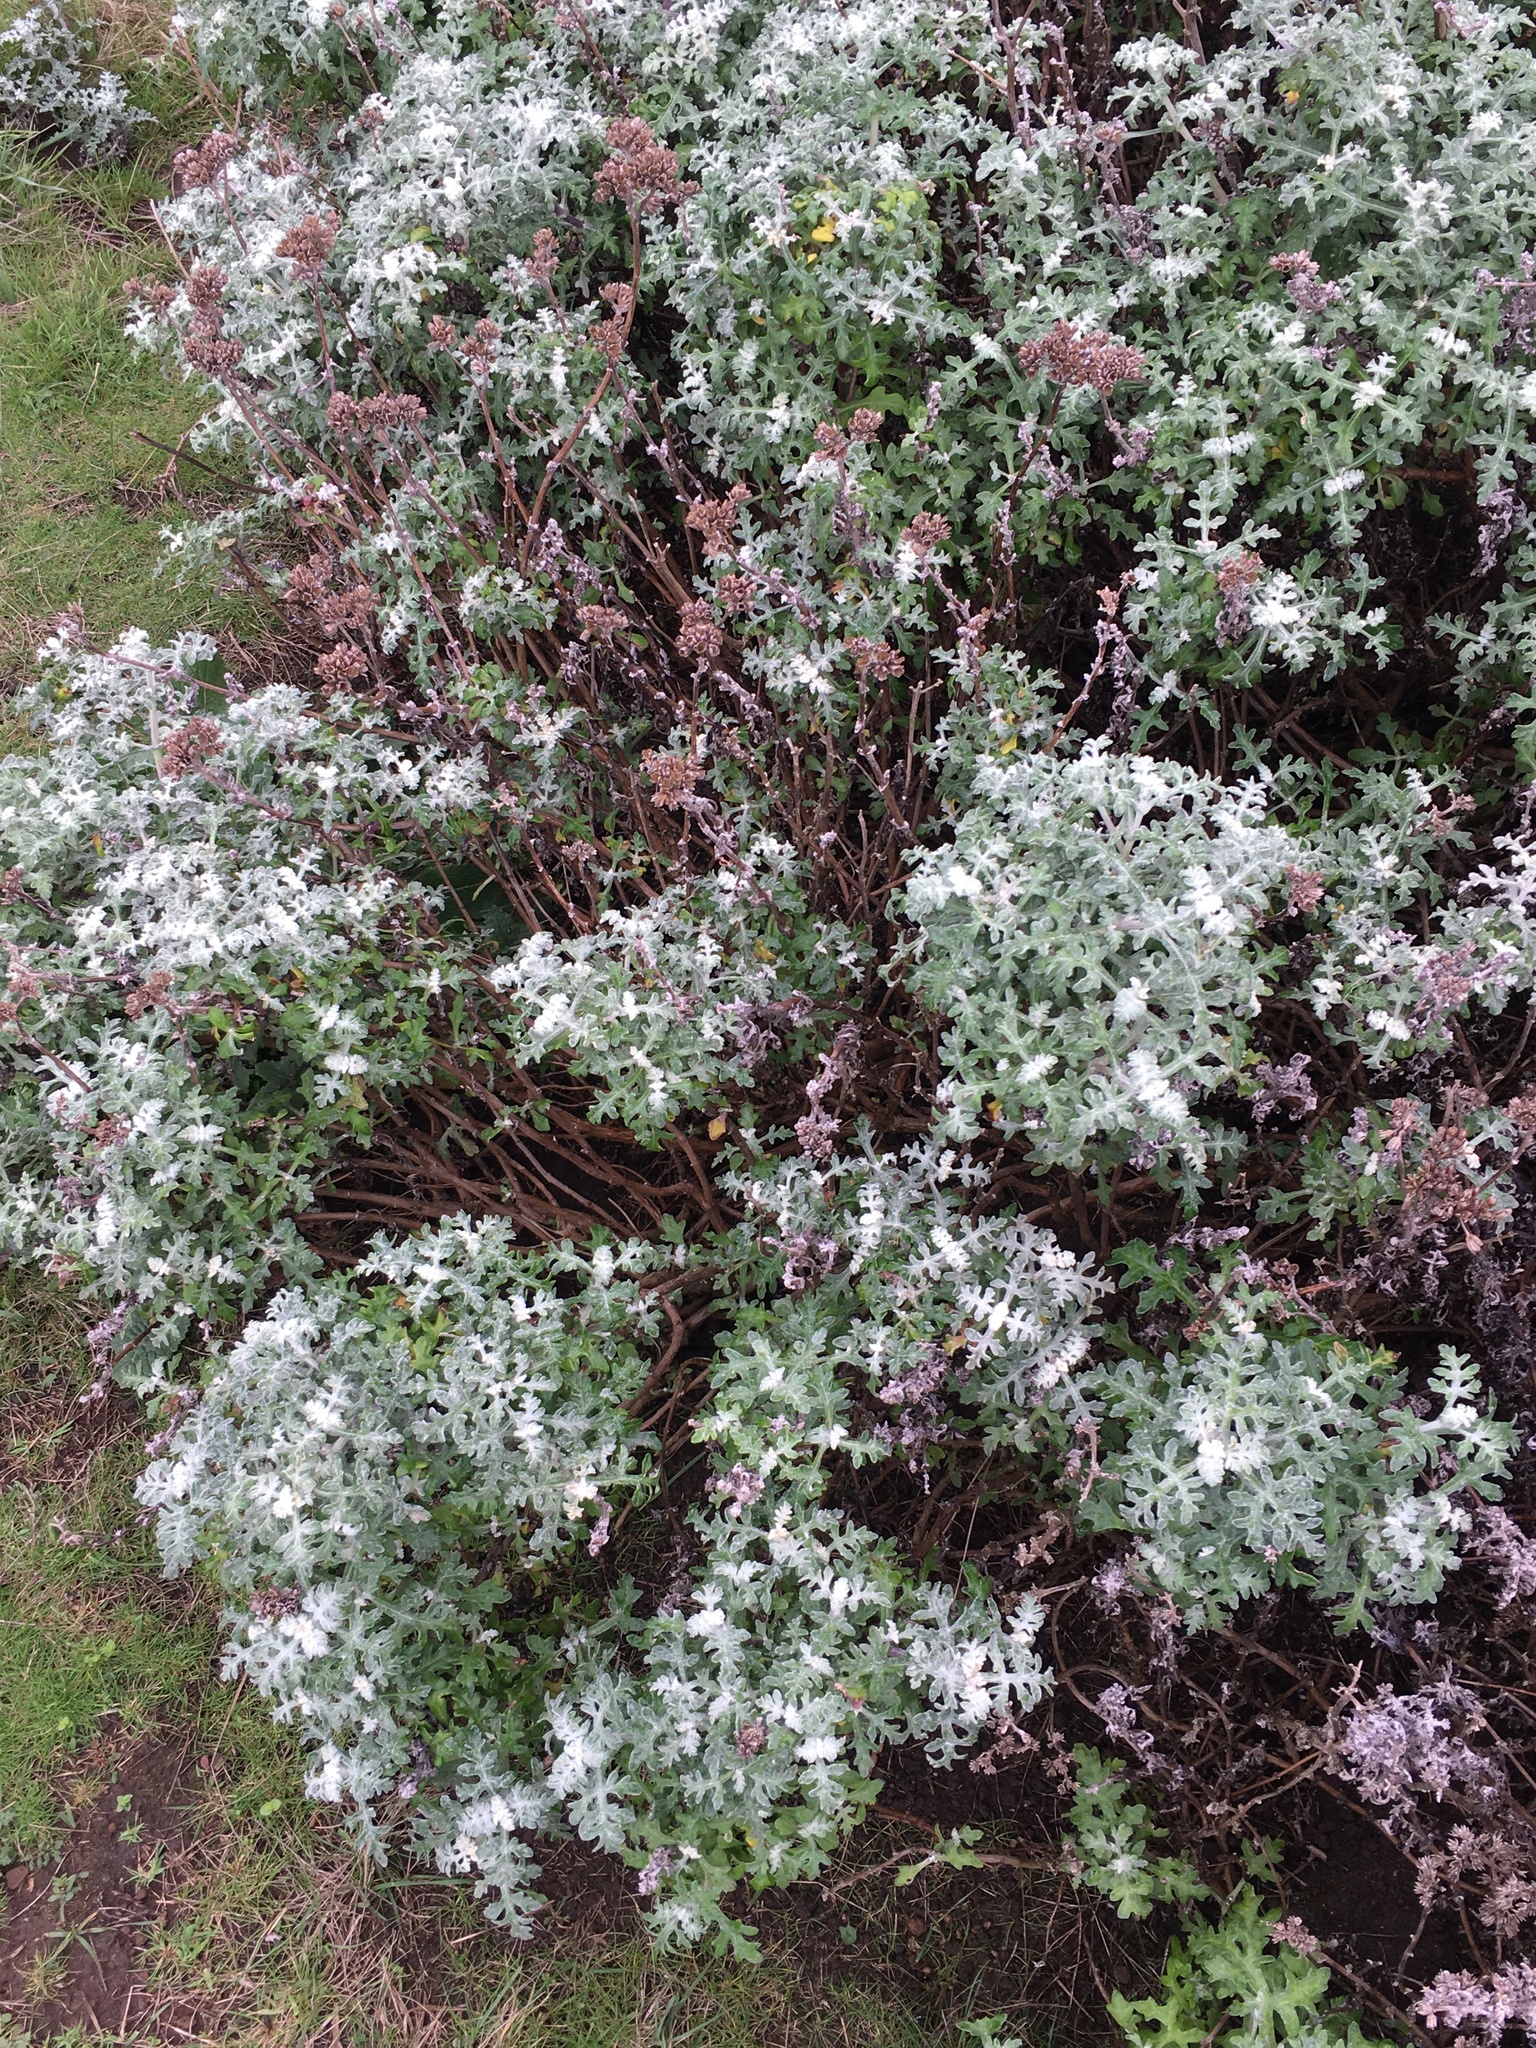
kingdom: Plantae
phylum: Tracheophyta
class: Magnoliopsida
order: Asterales
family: Asteraceae
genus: Eriophyllum
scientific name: Eriophyllum staechadifolium
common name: Lizardtail
